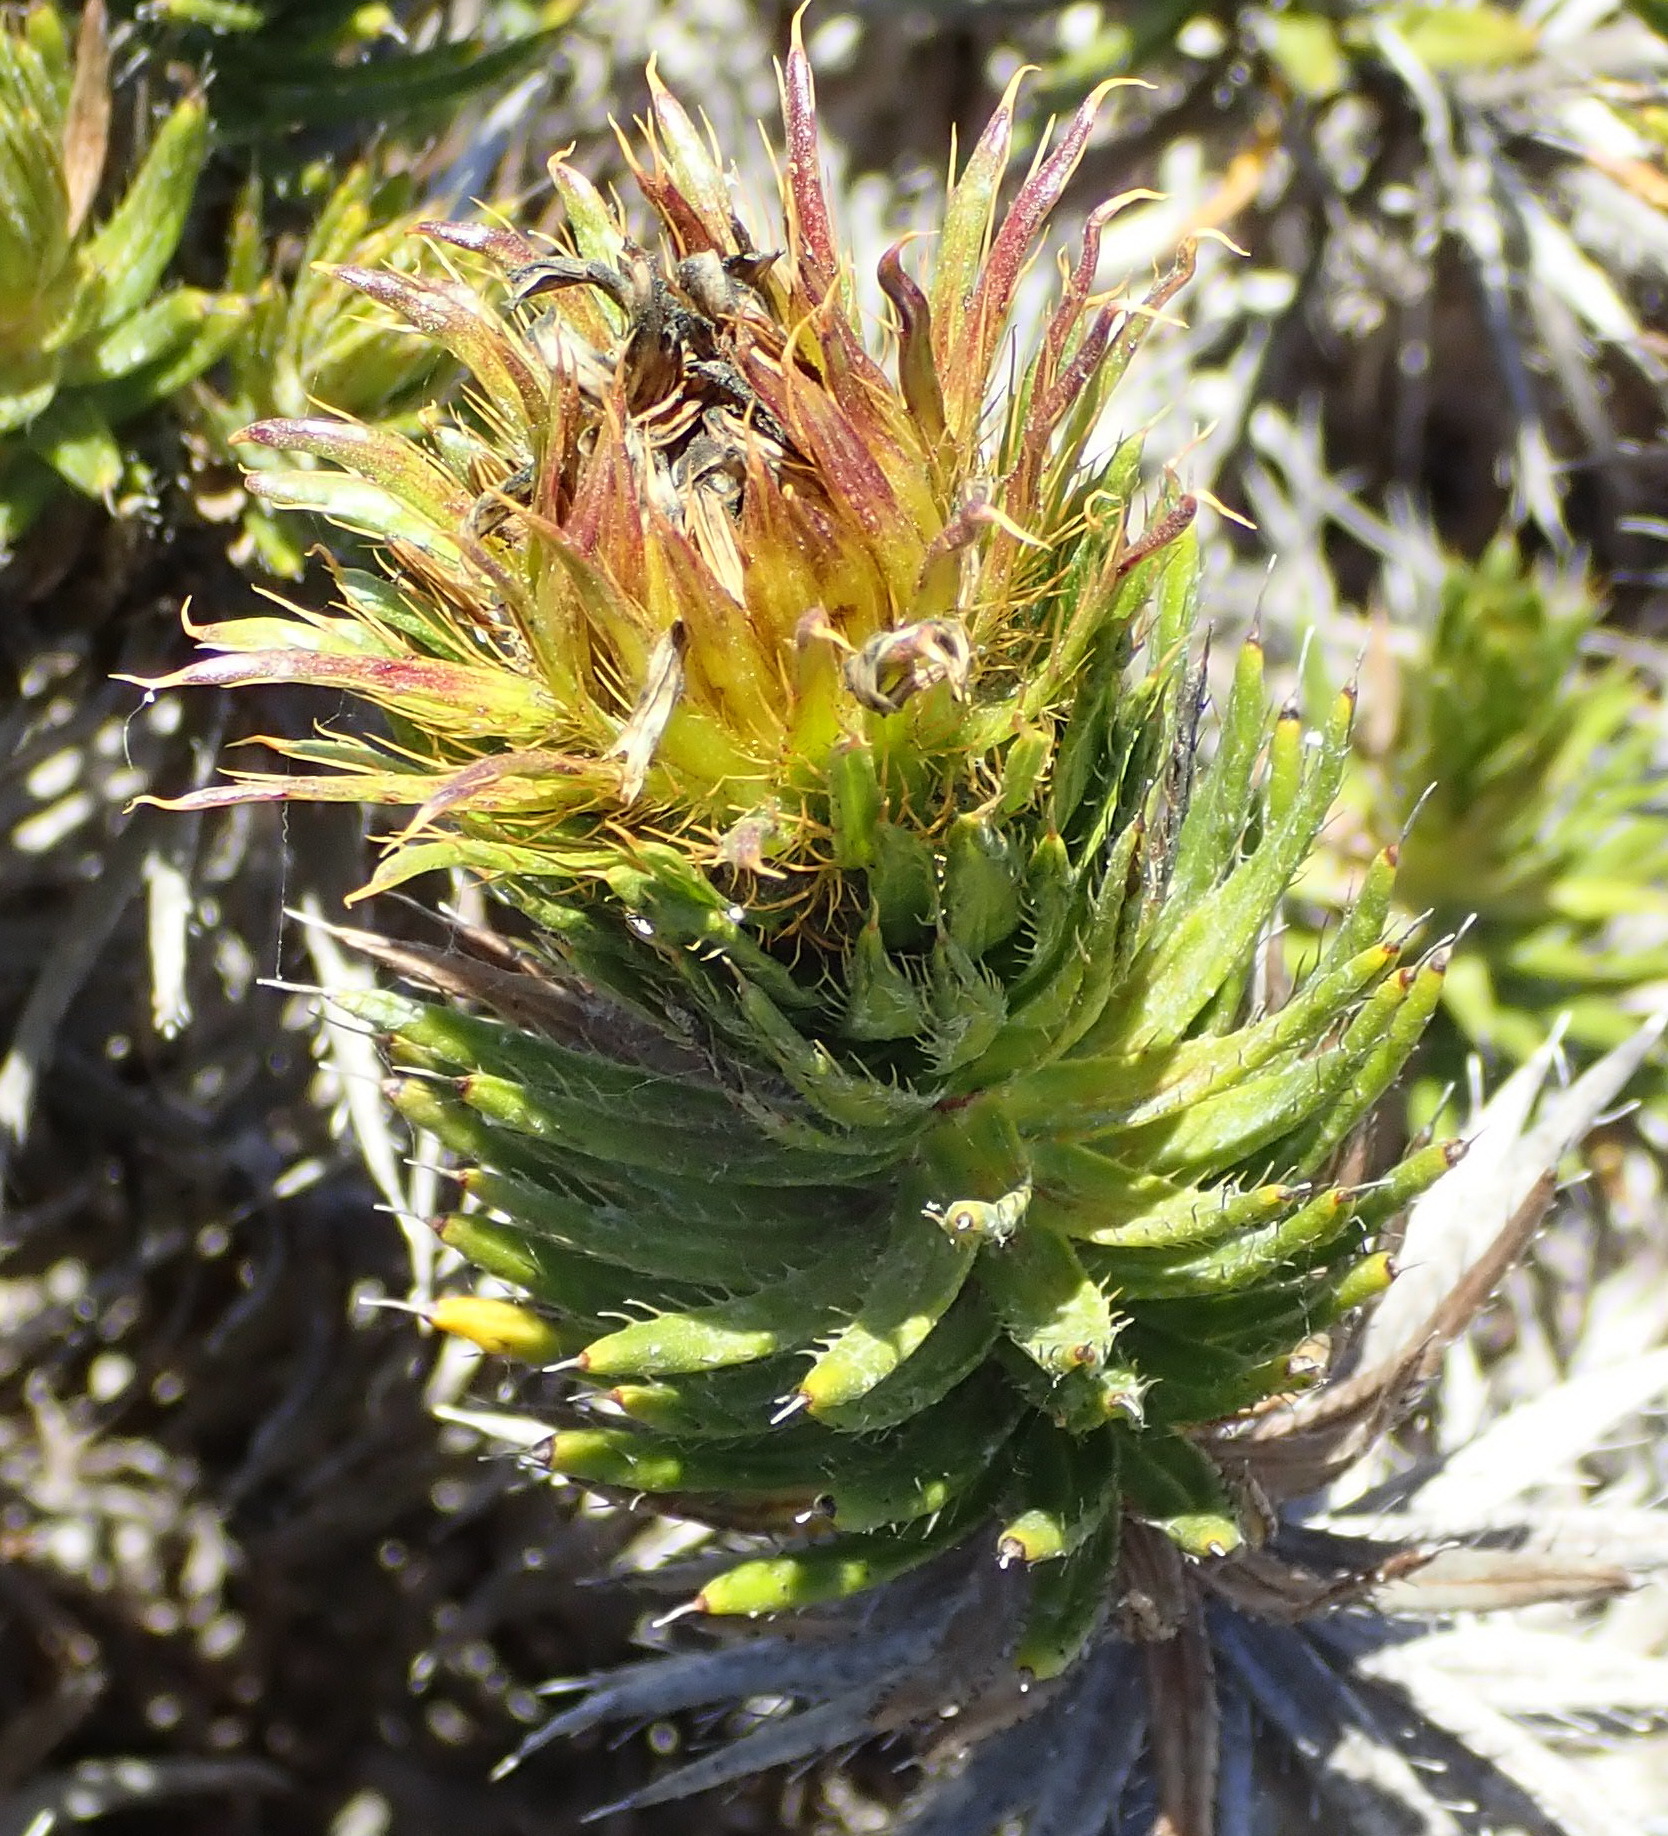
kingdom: Plantae
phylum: Tracheophyta
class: Magnoliopsida
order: Asterales
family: Asteraceae
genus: Cullumia
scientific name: Cullumia carlinoides
